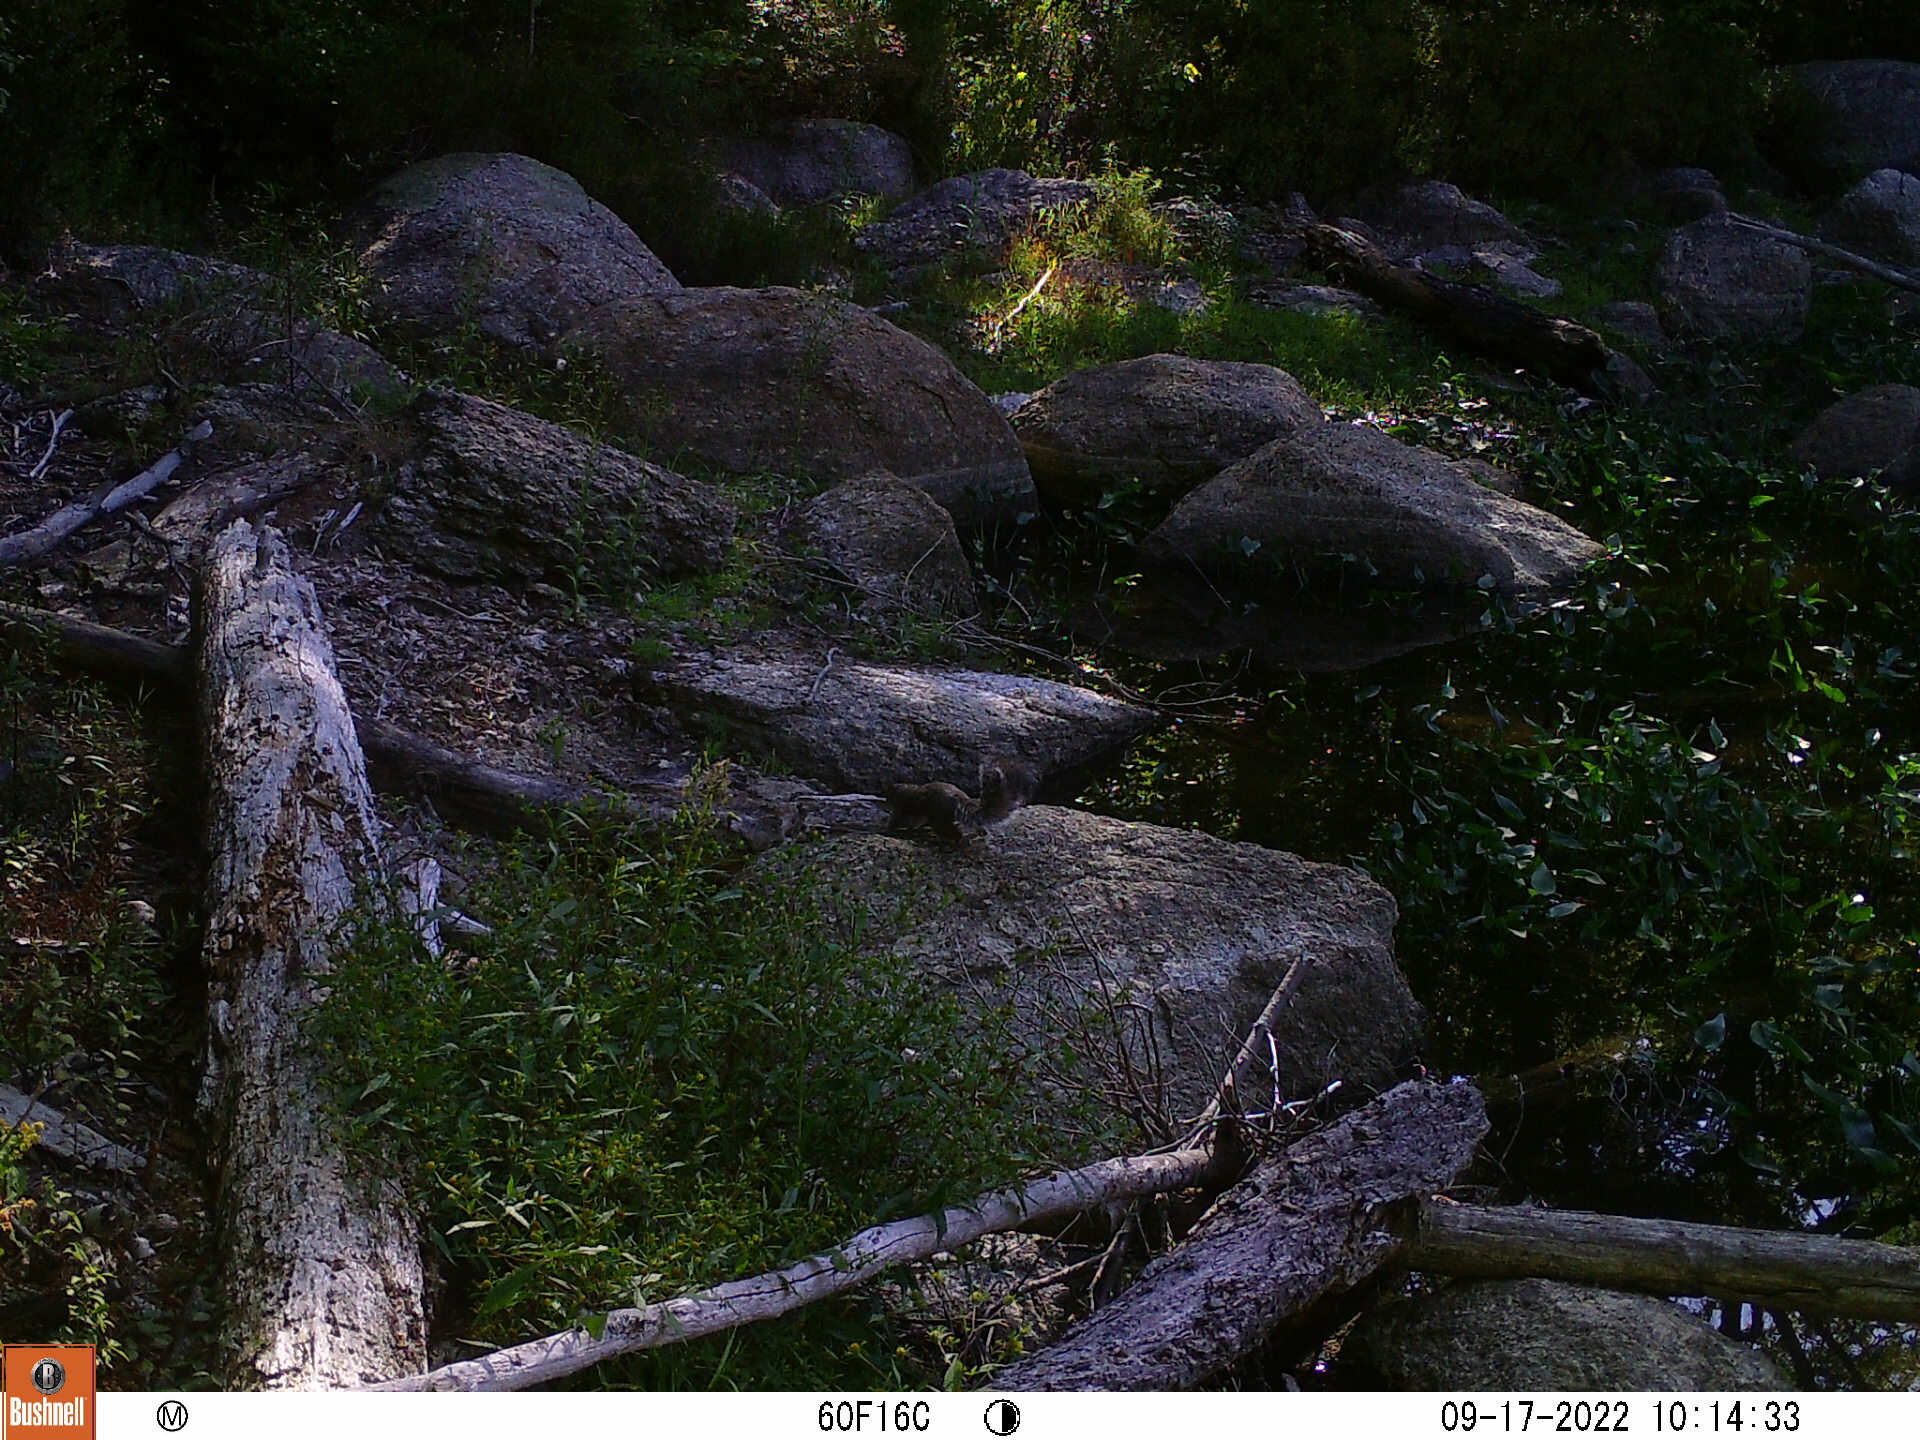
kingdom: Animalia
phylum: Chordata
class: Mammalia
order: Rodentia
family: Sciuridae
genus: Sciurus
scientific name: Sciurus carolinensis
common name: Eastern gray squirrel
